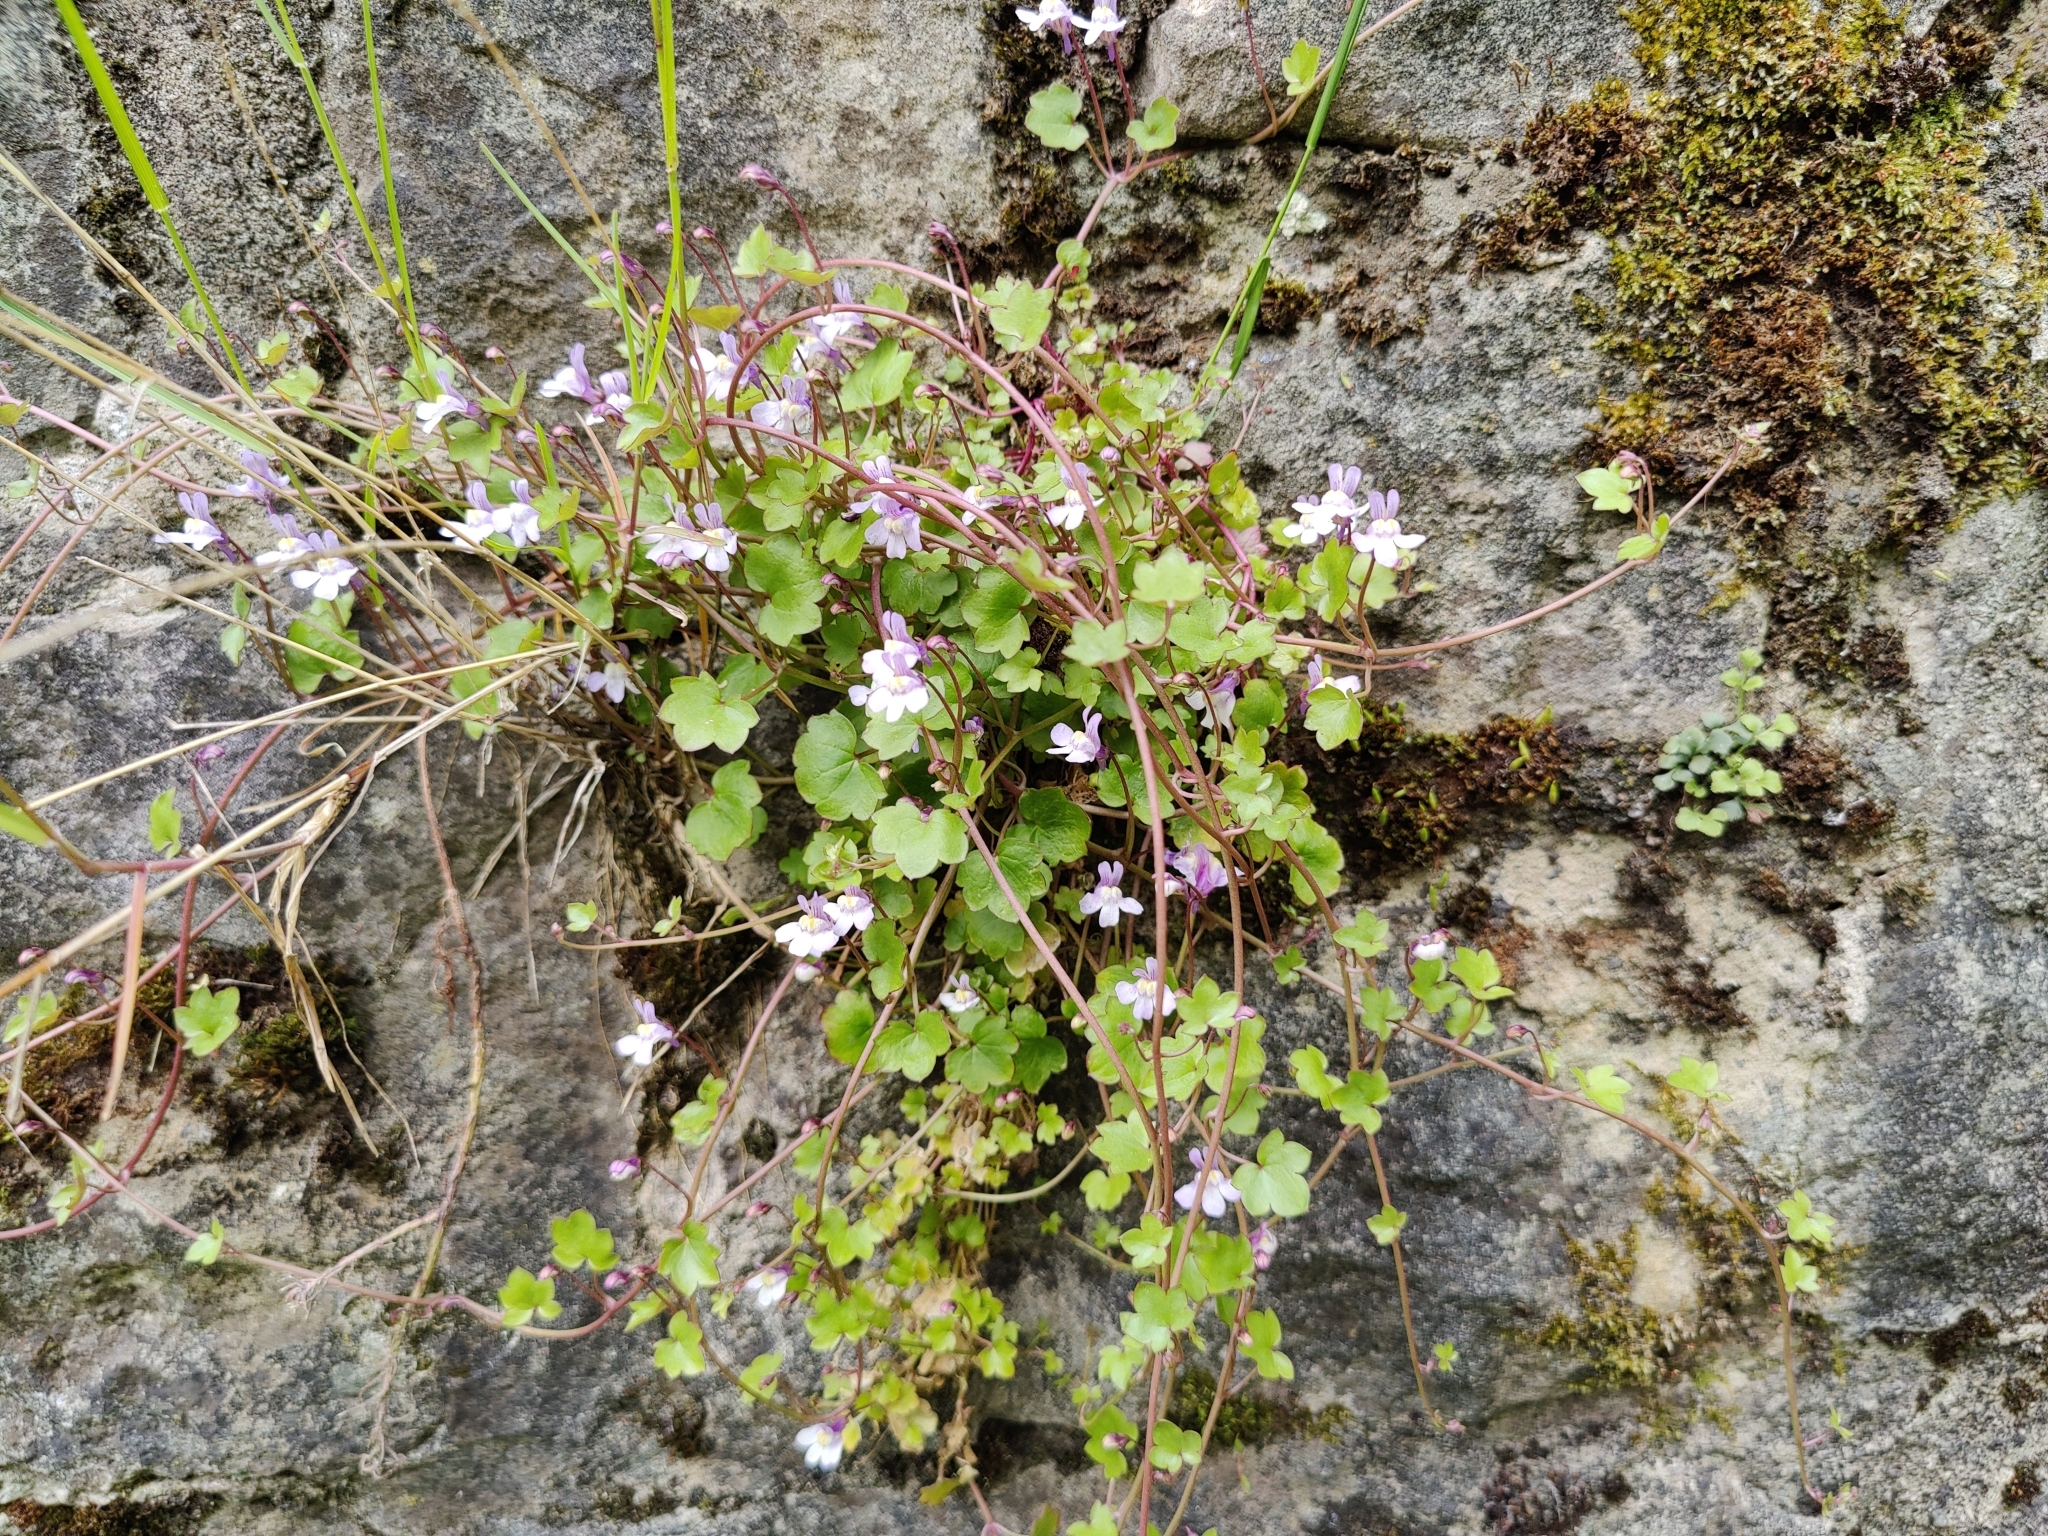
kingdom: Plantae
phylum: Tracheophyta
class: Magnoliopsida
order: Lamiales
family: Plantaginaceae
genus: Cymbalaria
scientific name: Cymbalaria muralis
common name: Ivy-leaved toadflax
